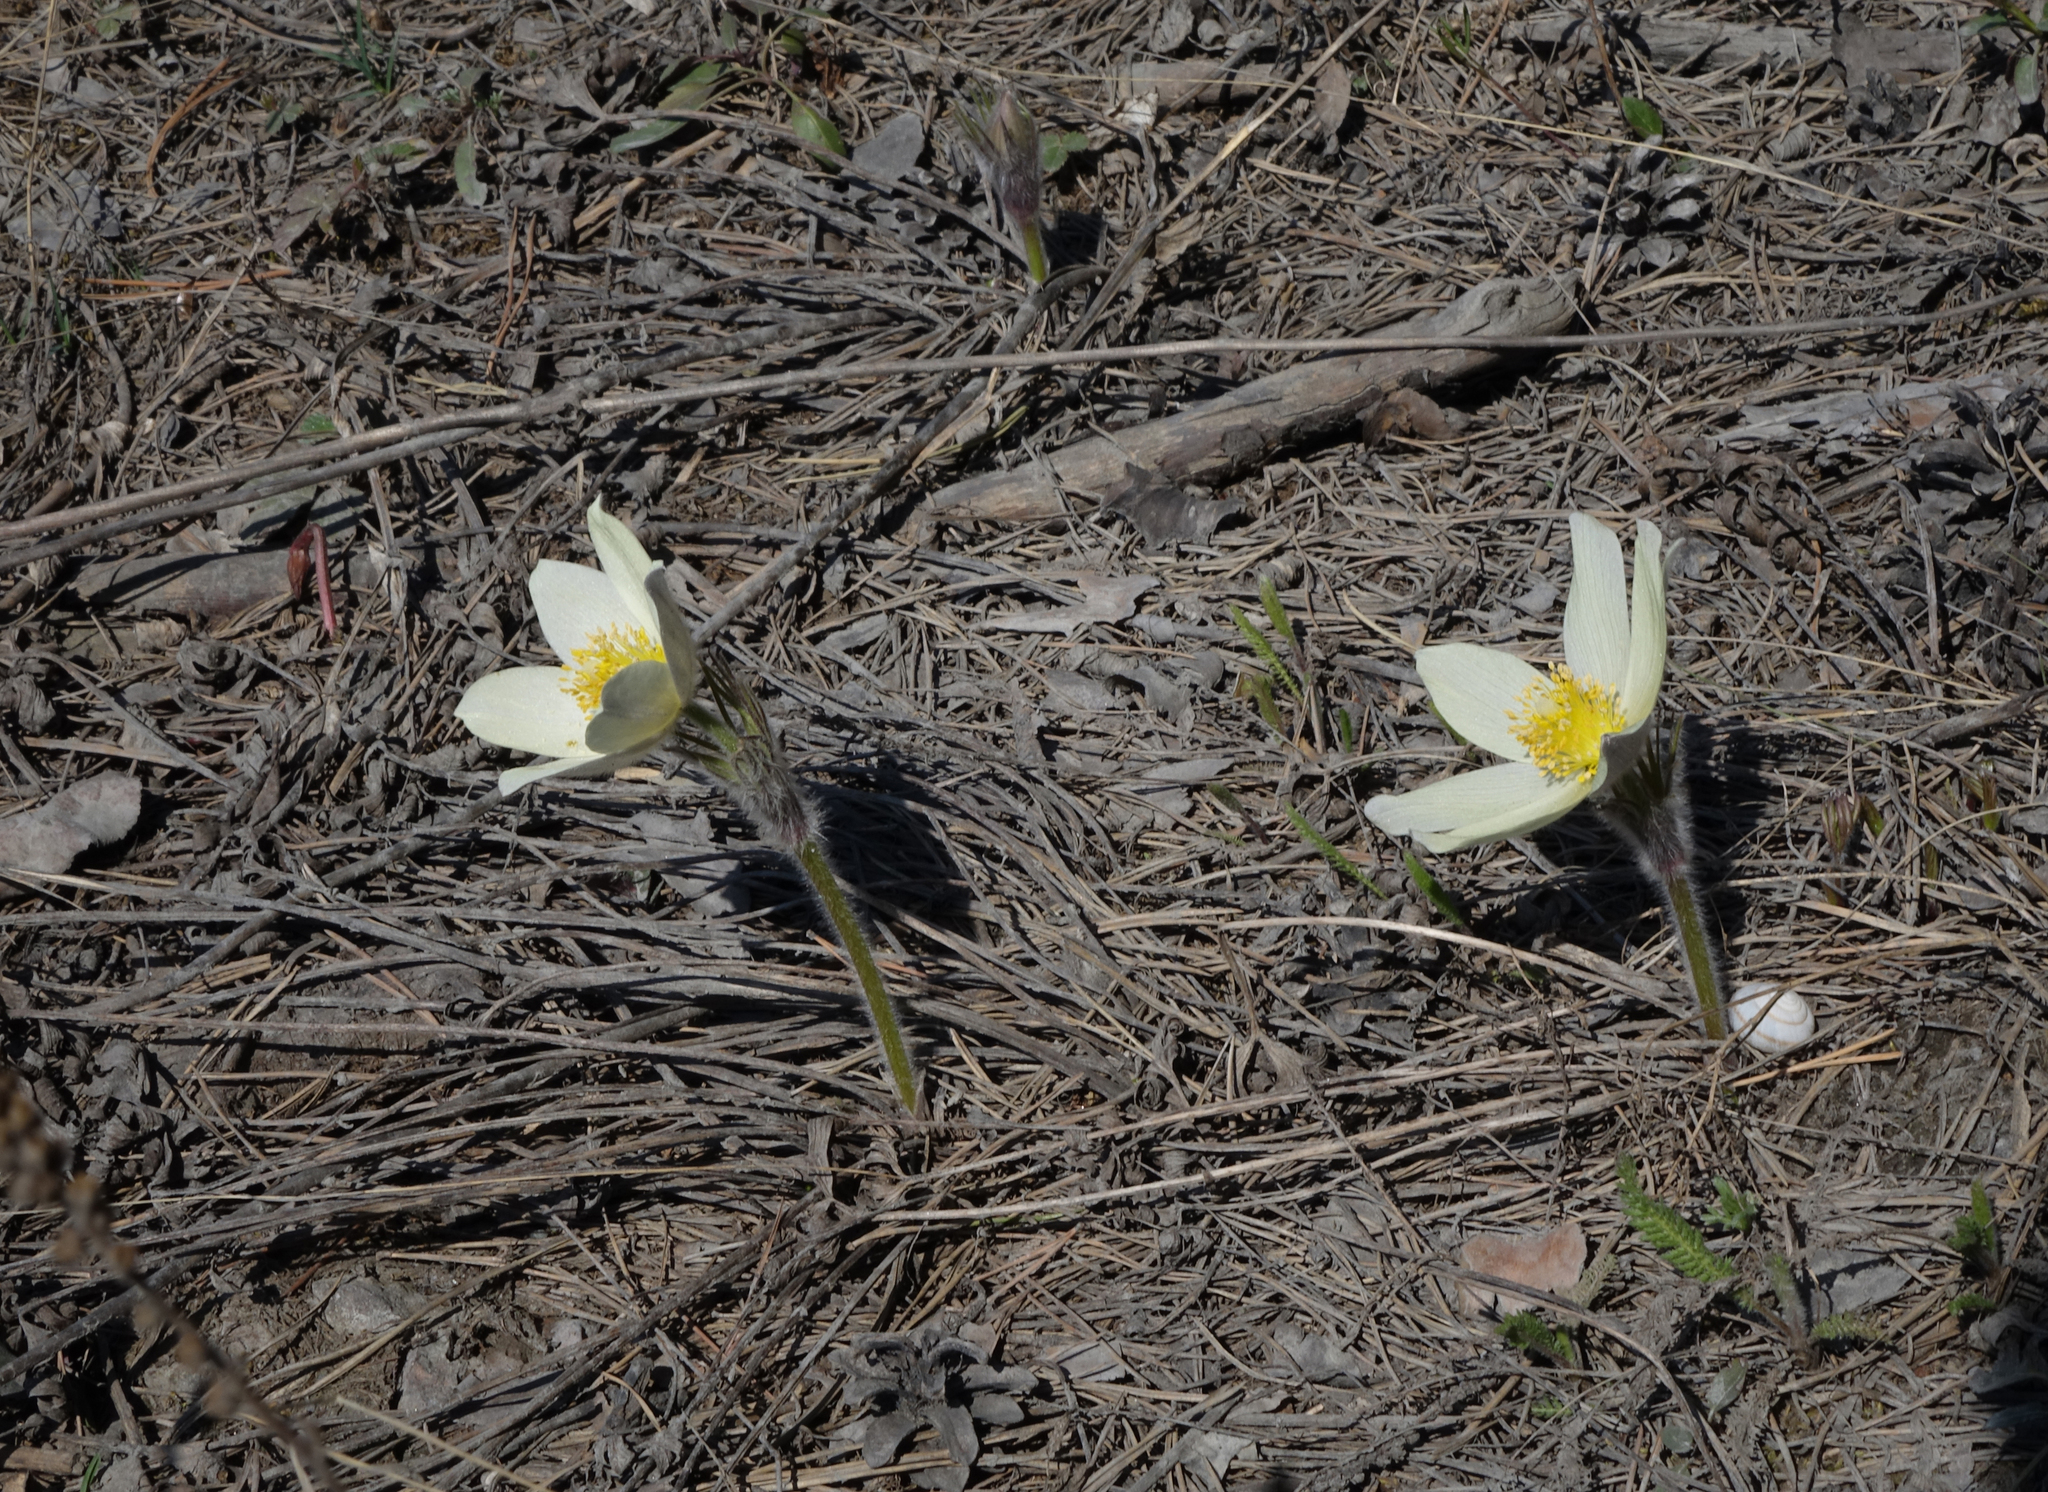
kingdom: Plantae
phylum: Tracheophyta
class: Magnoliopsida
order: Ranunculales
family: Ranunculaceae
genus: Pulsatilla
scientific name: Pulsatilla patens
